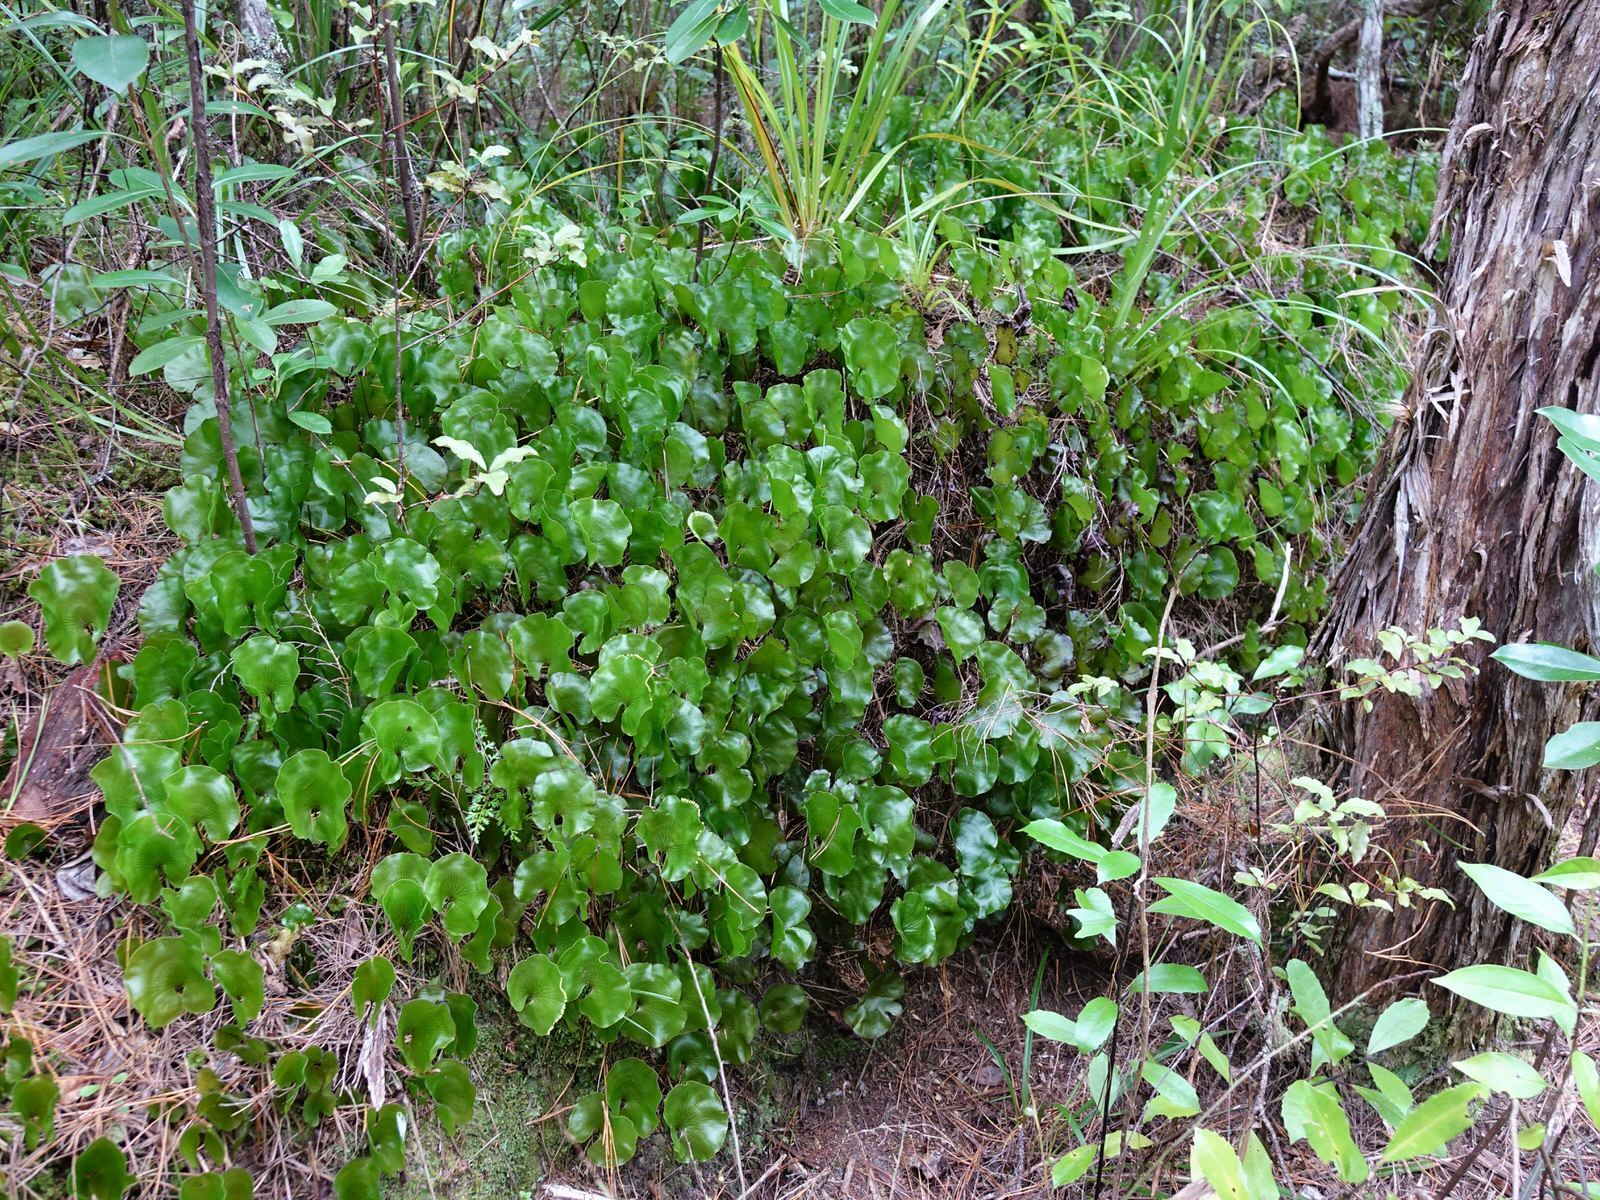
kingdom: Plantae
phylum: Tracheophyta
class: Polypodiopsida
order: Hymenophyllales
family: Hymenophyllaceae
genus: Hymenophyllum
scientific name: Hymenophyllum nephrophyllum
